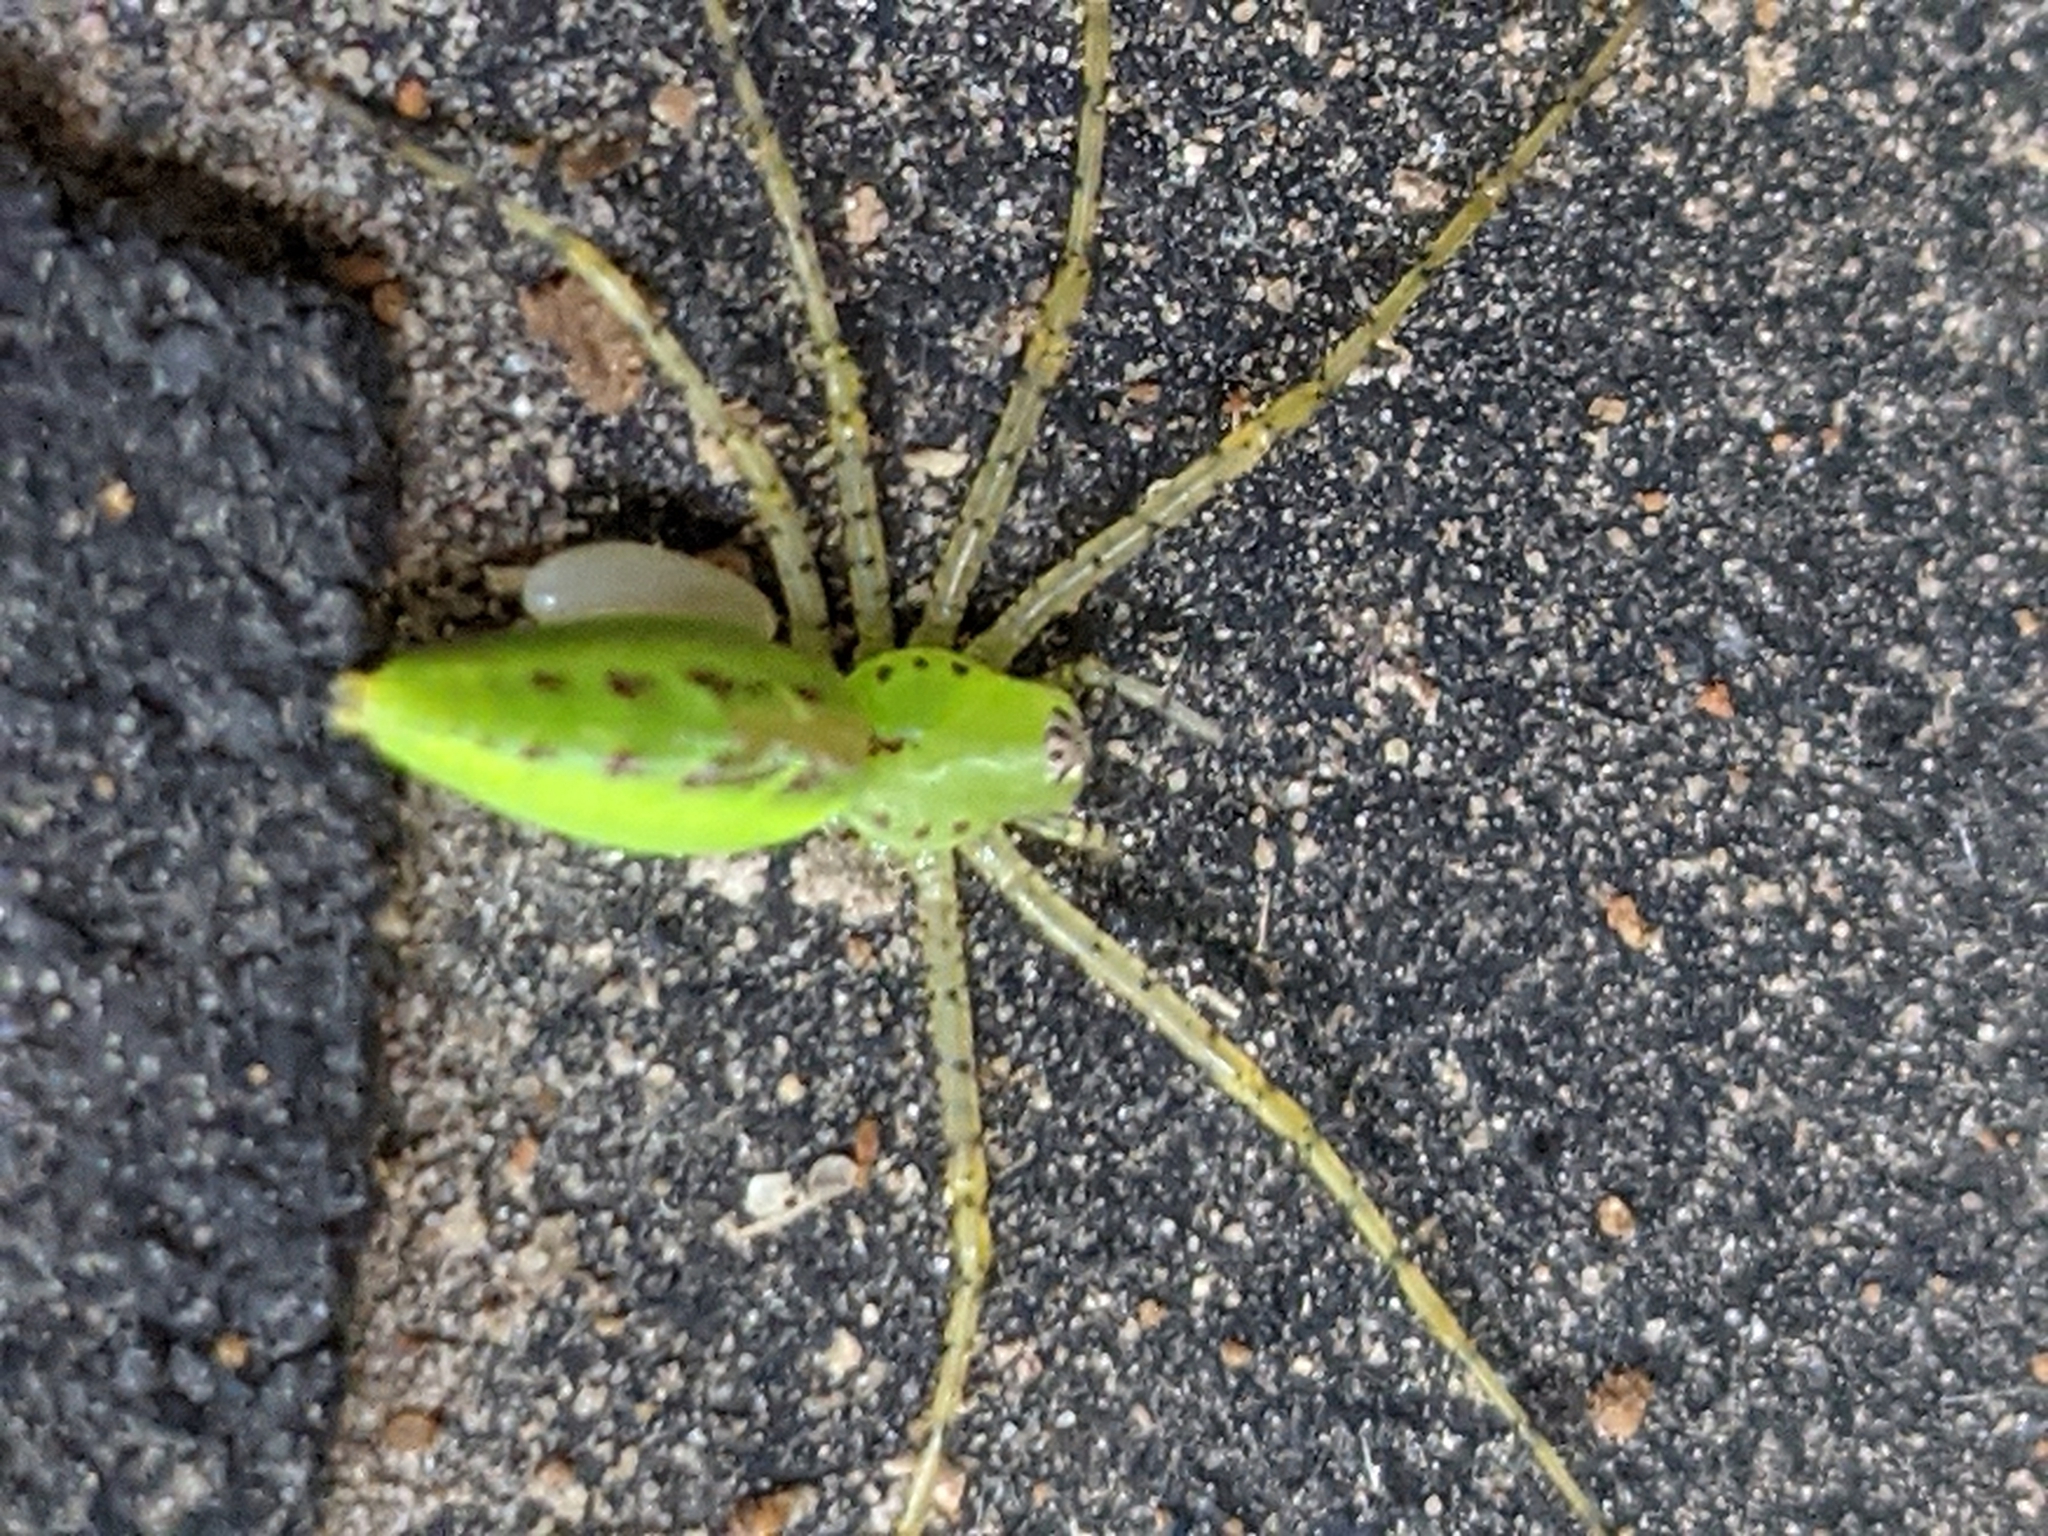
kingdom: Animalia
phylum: Arthropoda
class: Arachnida
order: Araneae
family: Oxyopidae
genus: Peucetia
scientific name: Peucetia viridans
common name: Lynx spiders
